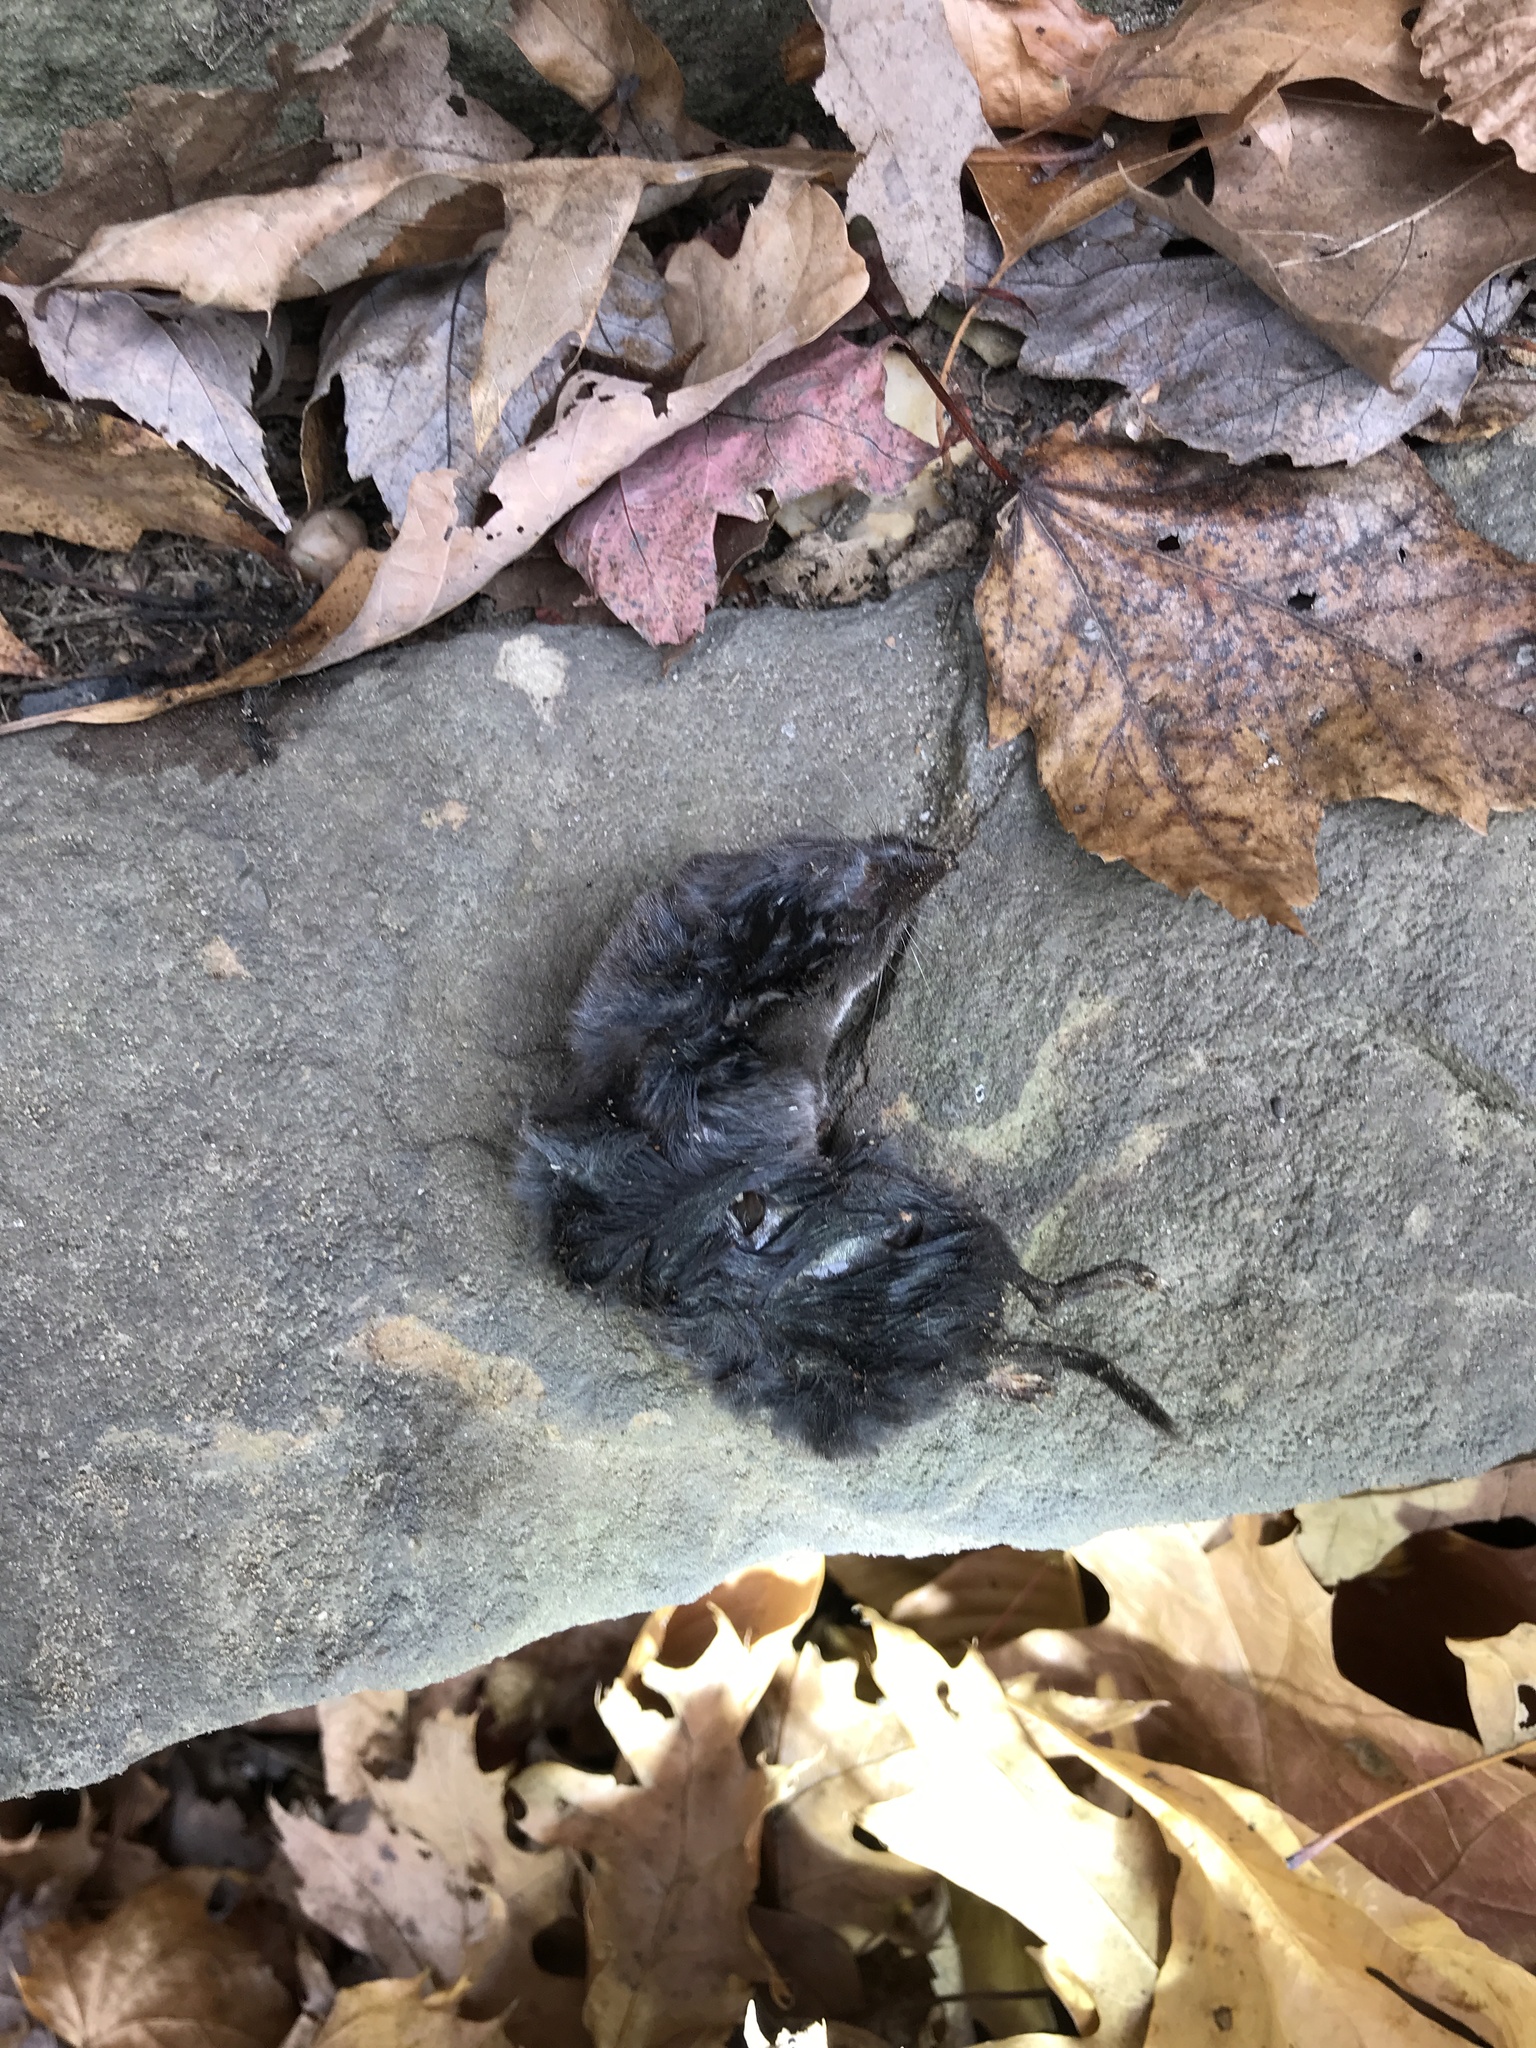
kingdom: Animalia
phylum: Chordata
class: Mammalia
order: Soricomorpha
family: Soricidae
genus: Blarina
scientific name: Blarina brevicauda
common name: Northern short-tailed shrew
